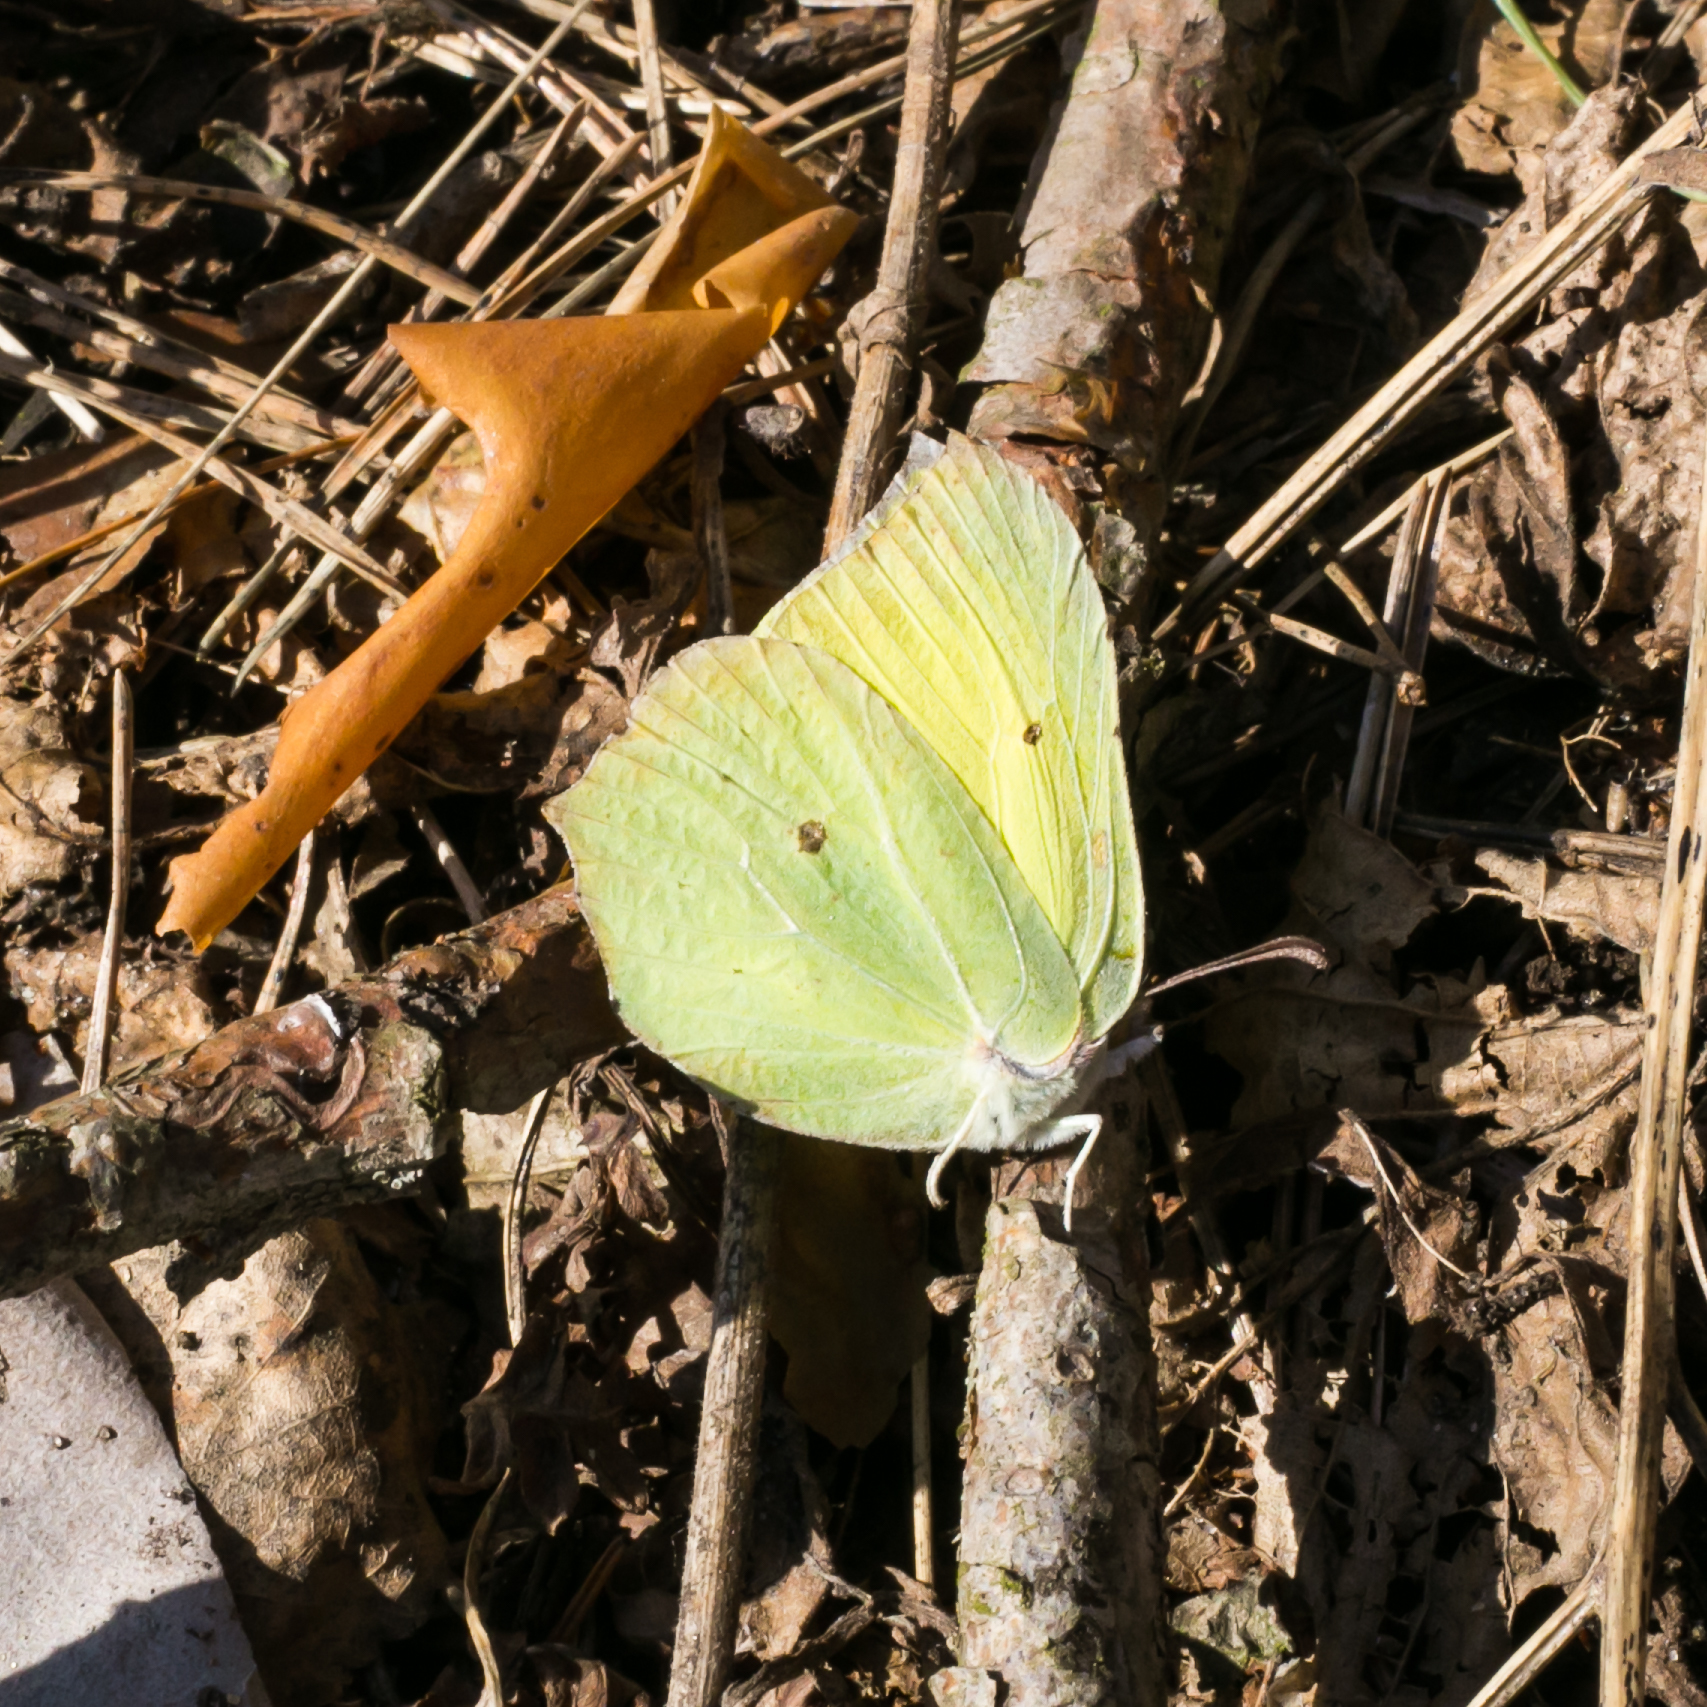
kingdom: Animalia
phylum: Arthropoda
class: Insecta
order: Lepidoptera
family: Pieridae
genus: Gonepteryx
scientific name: Gonepteryx rhamni
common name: Brimstone
